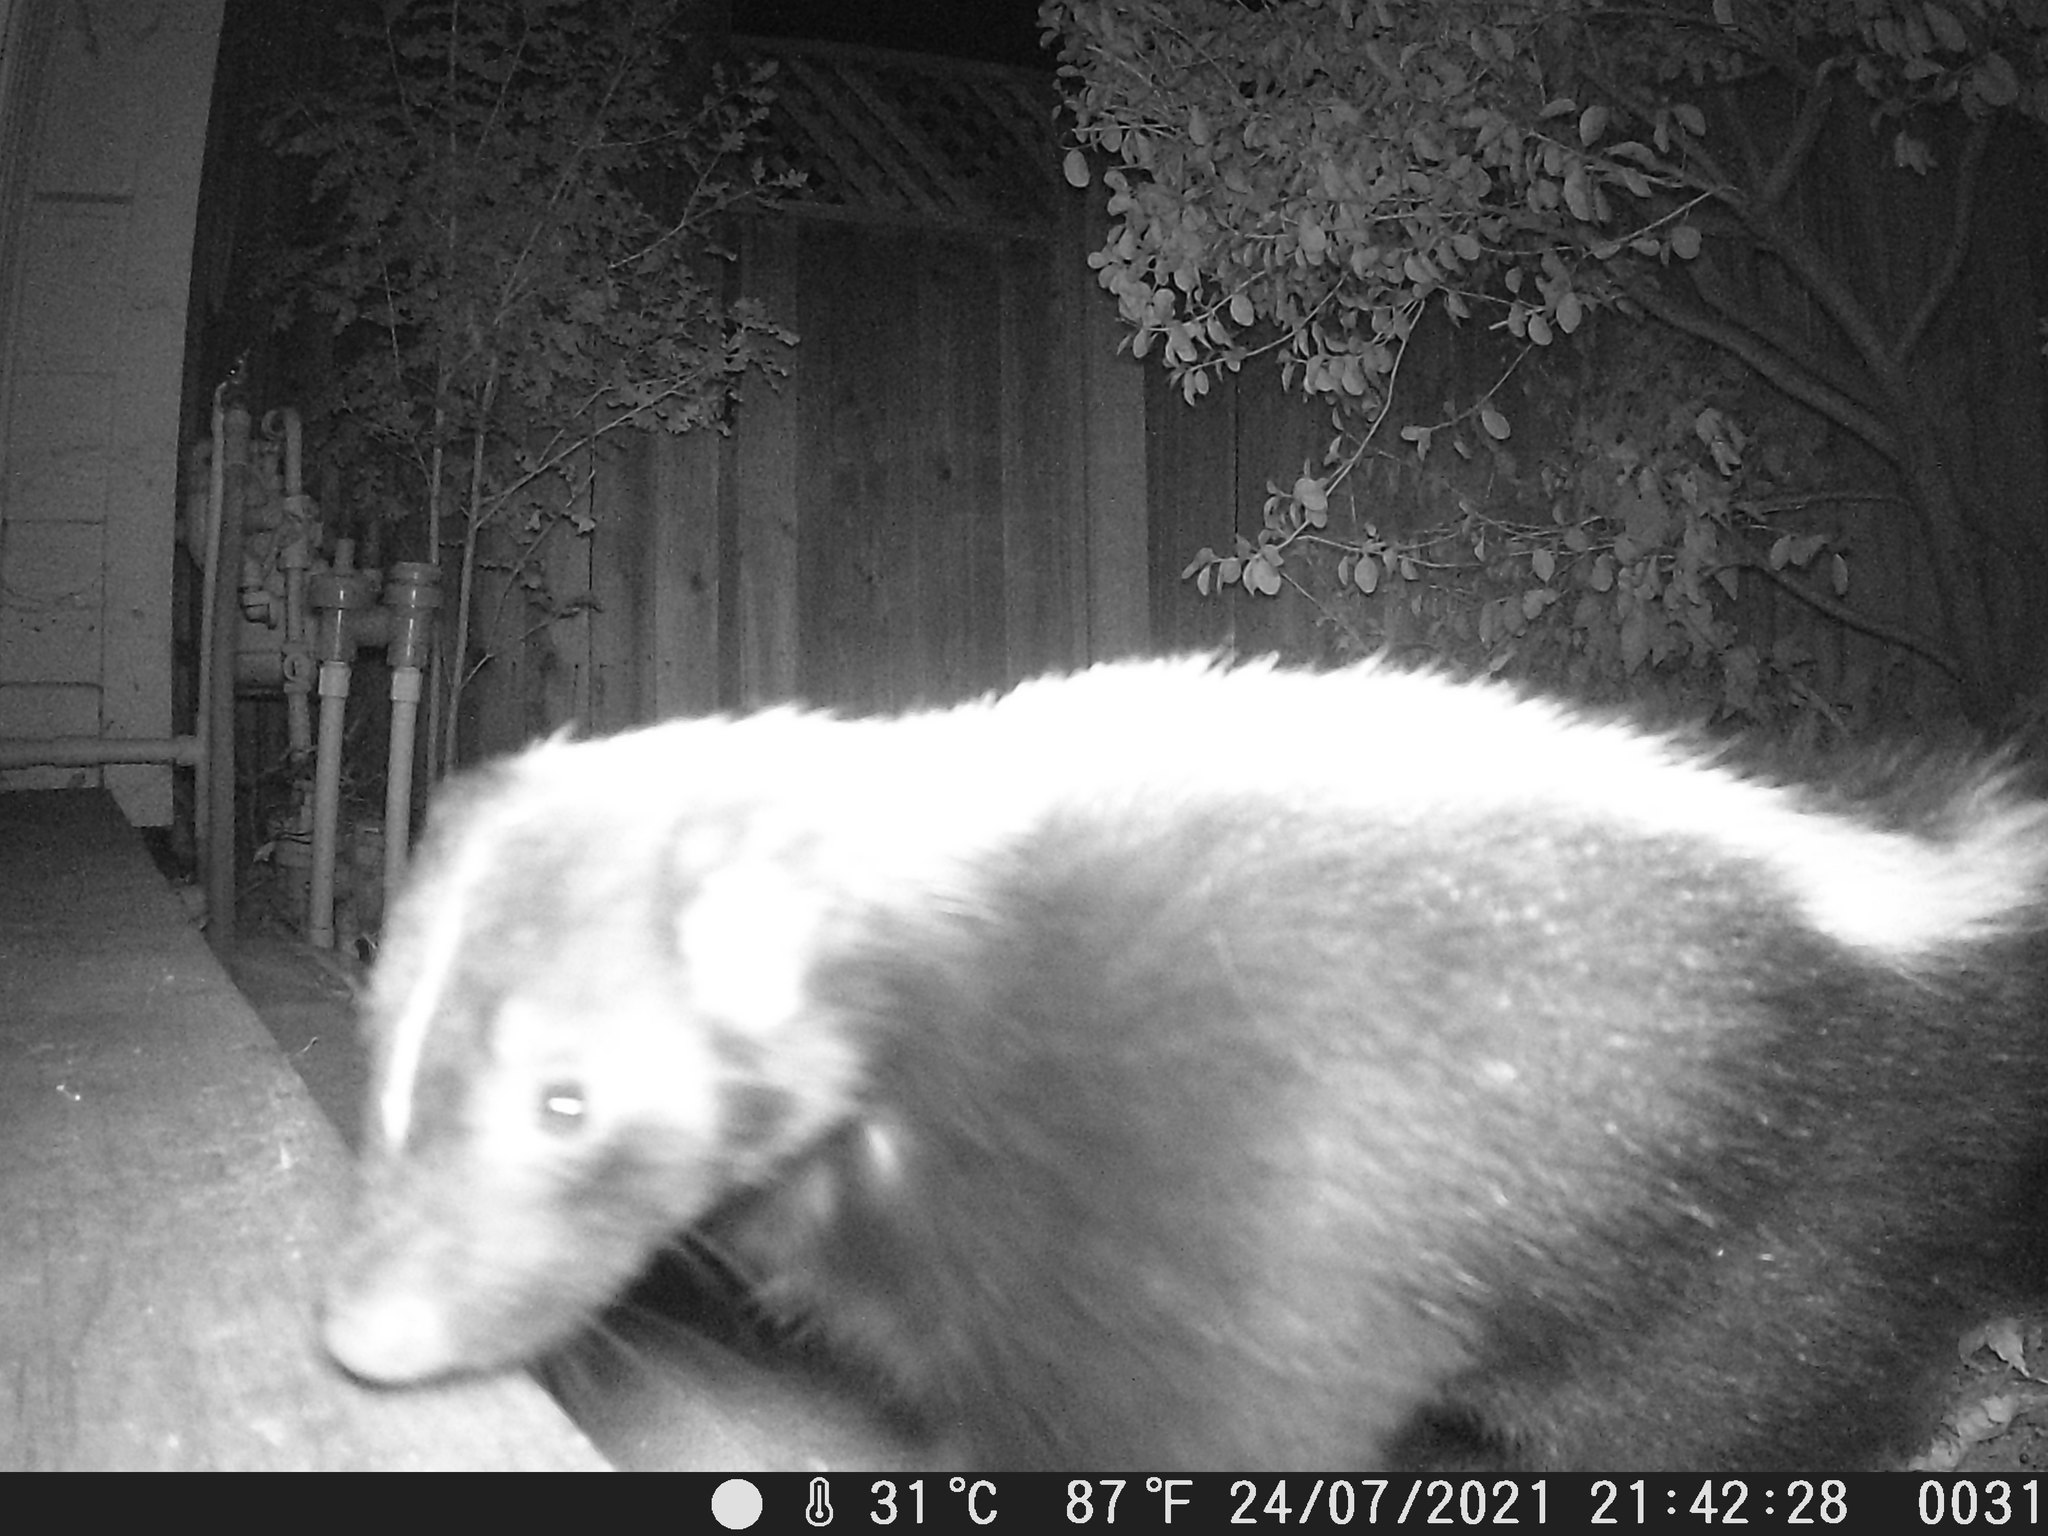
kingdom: Animalia
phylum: Chordata
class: Mammalia
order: Carnivora
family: Mephitidae
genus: Mephitis
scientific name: Mephitis mephitis
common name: Striped skunk
